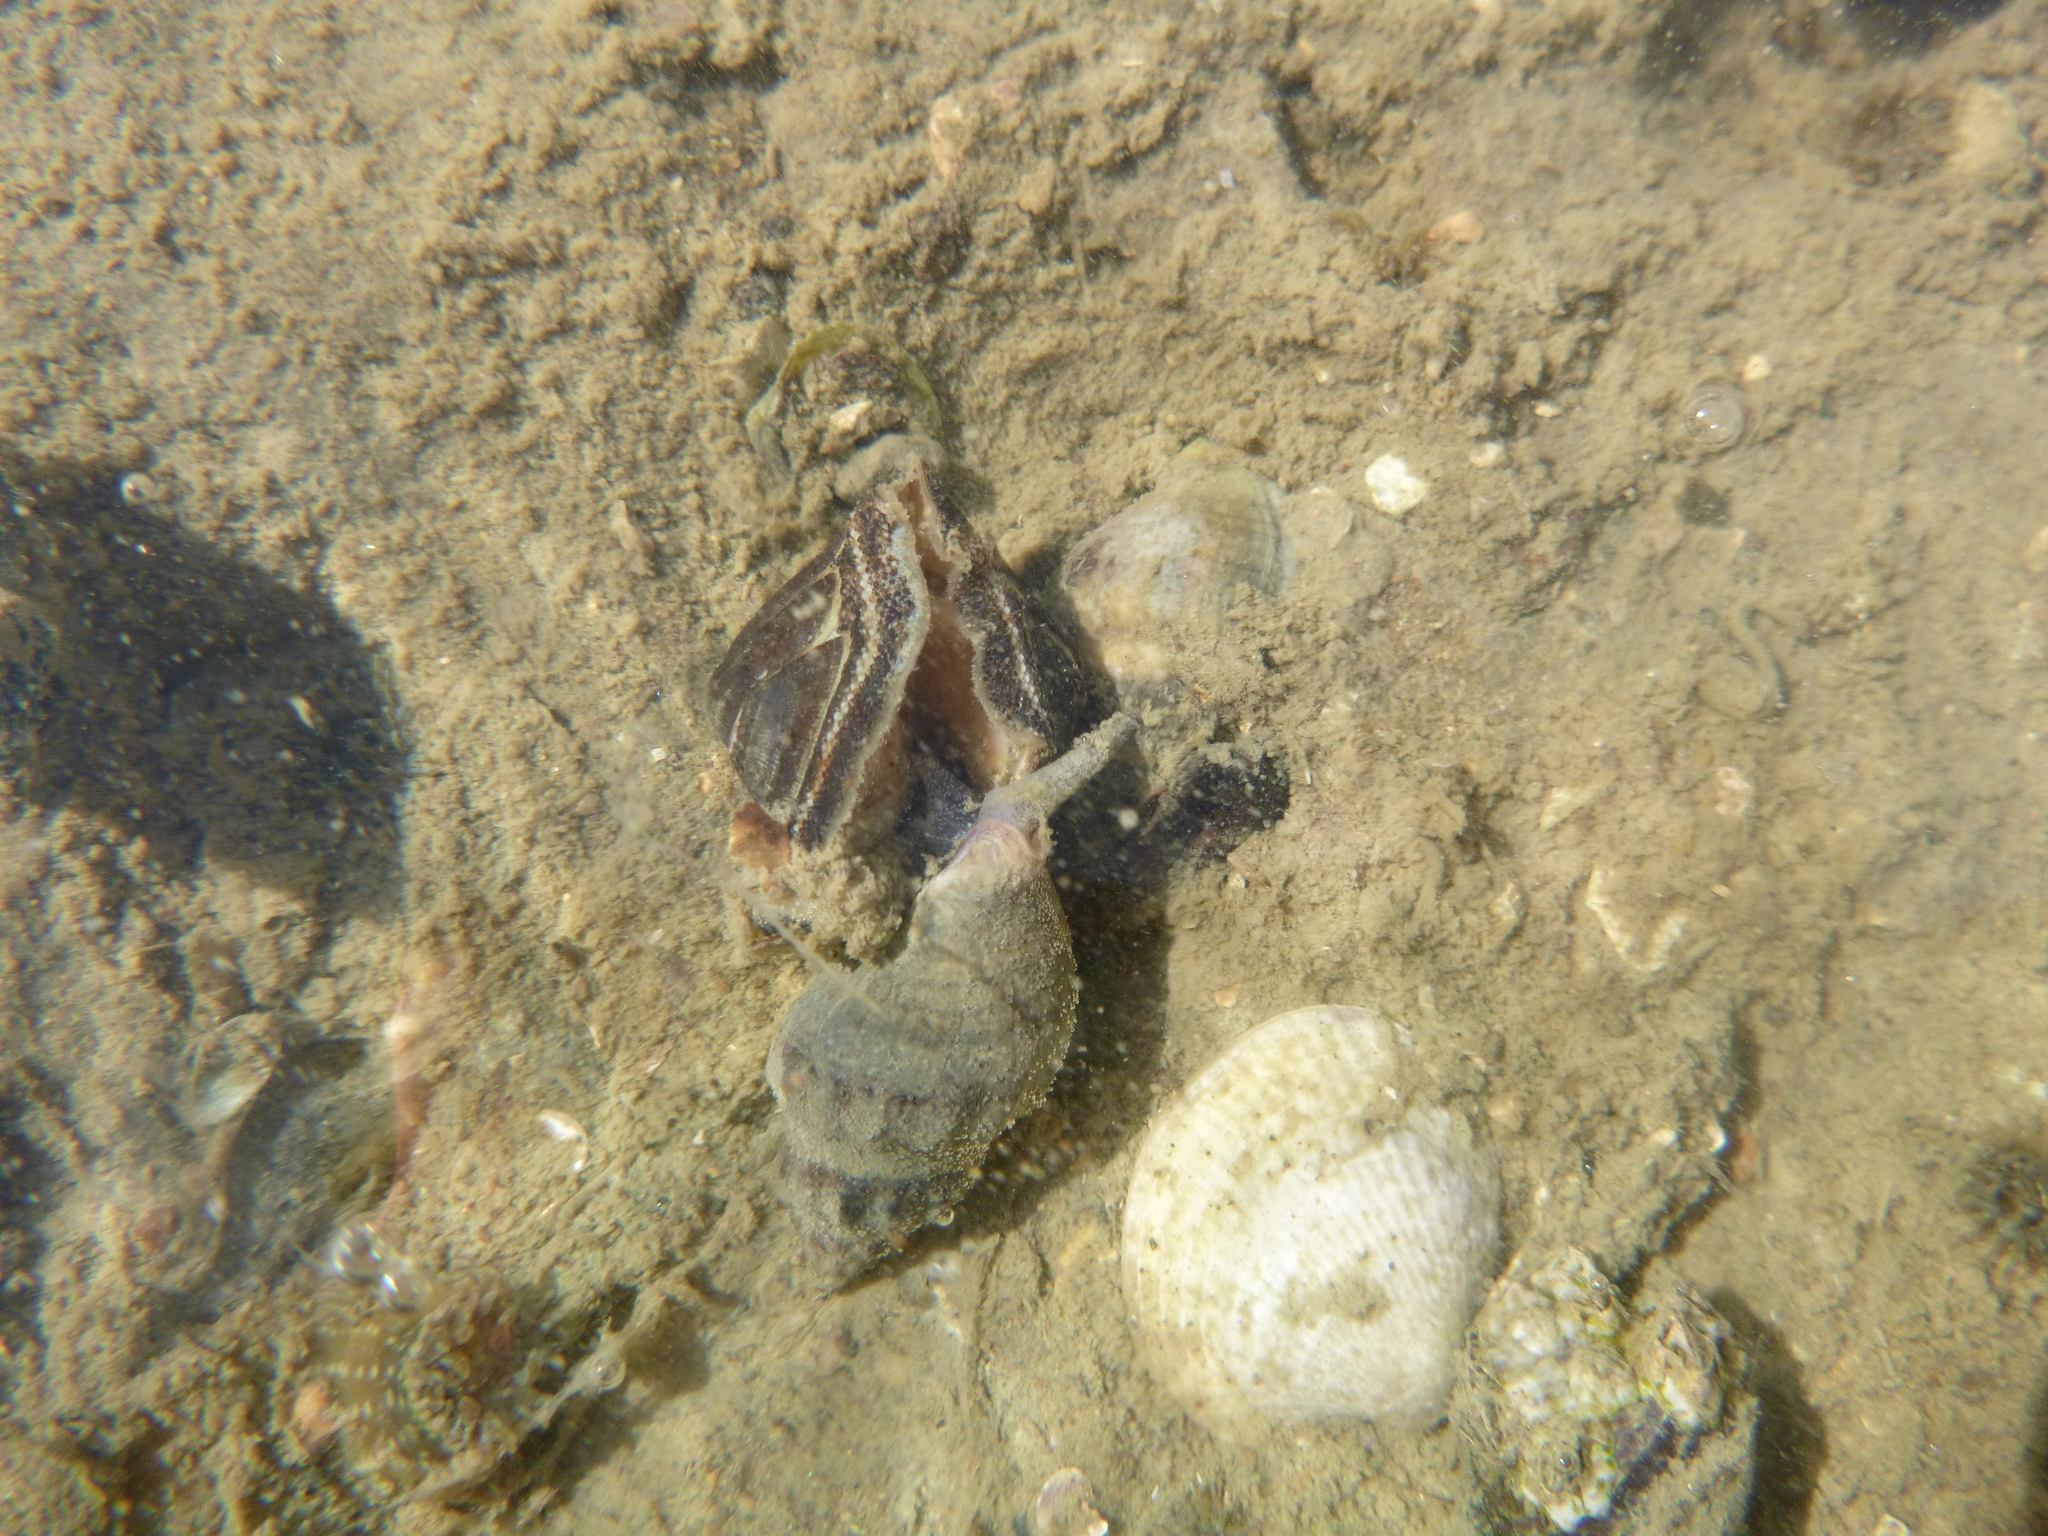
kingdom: Animalia
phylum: Mollusca
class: Gastropoda
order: Neogastropoda
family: Cominellidae
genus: Cominella
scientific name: Cominella glandiformis
